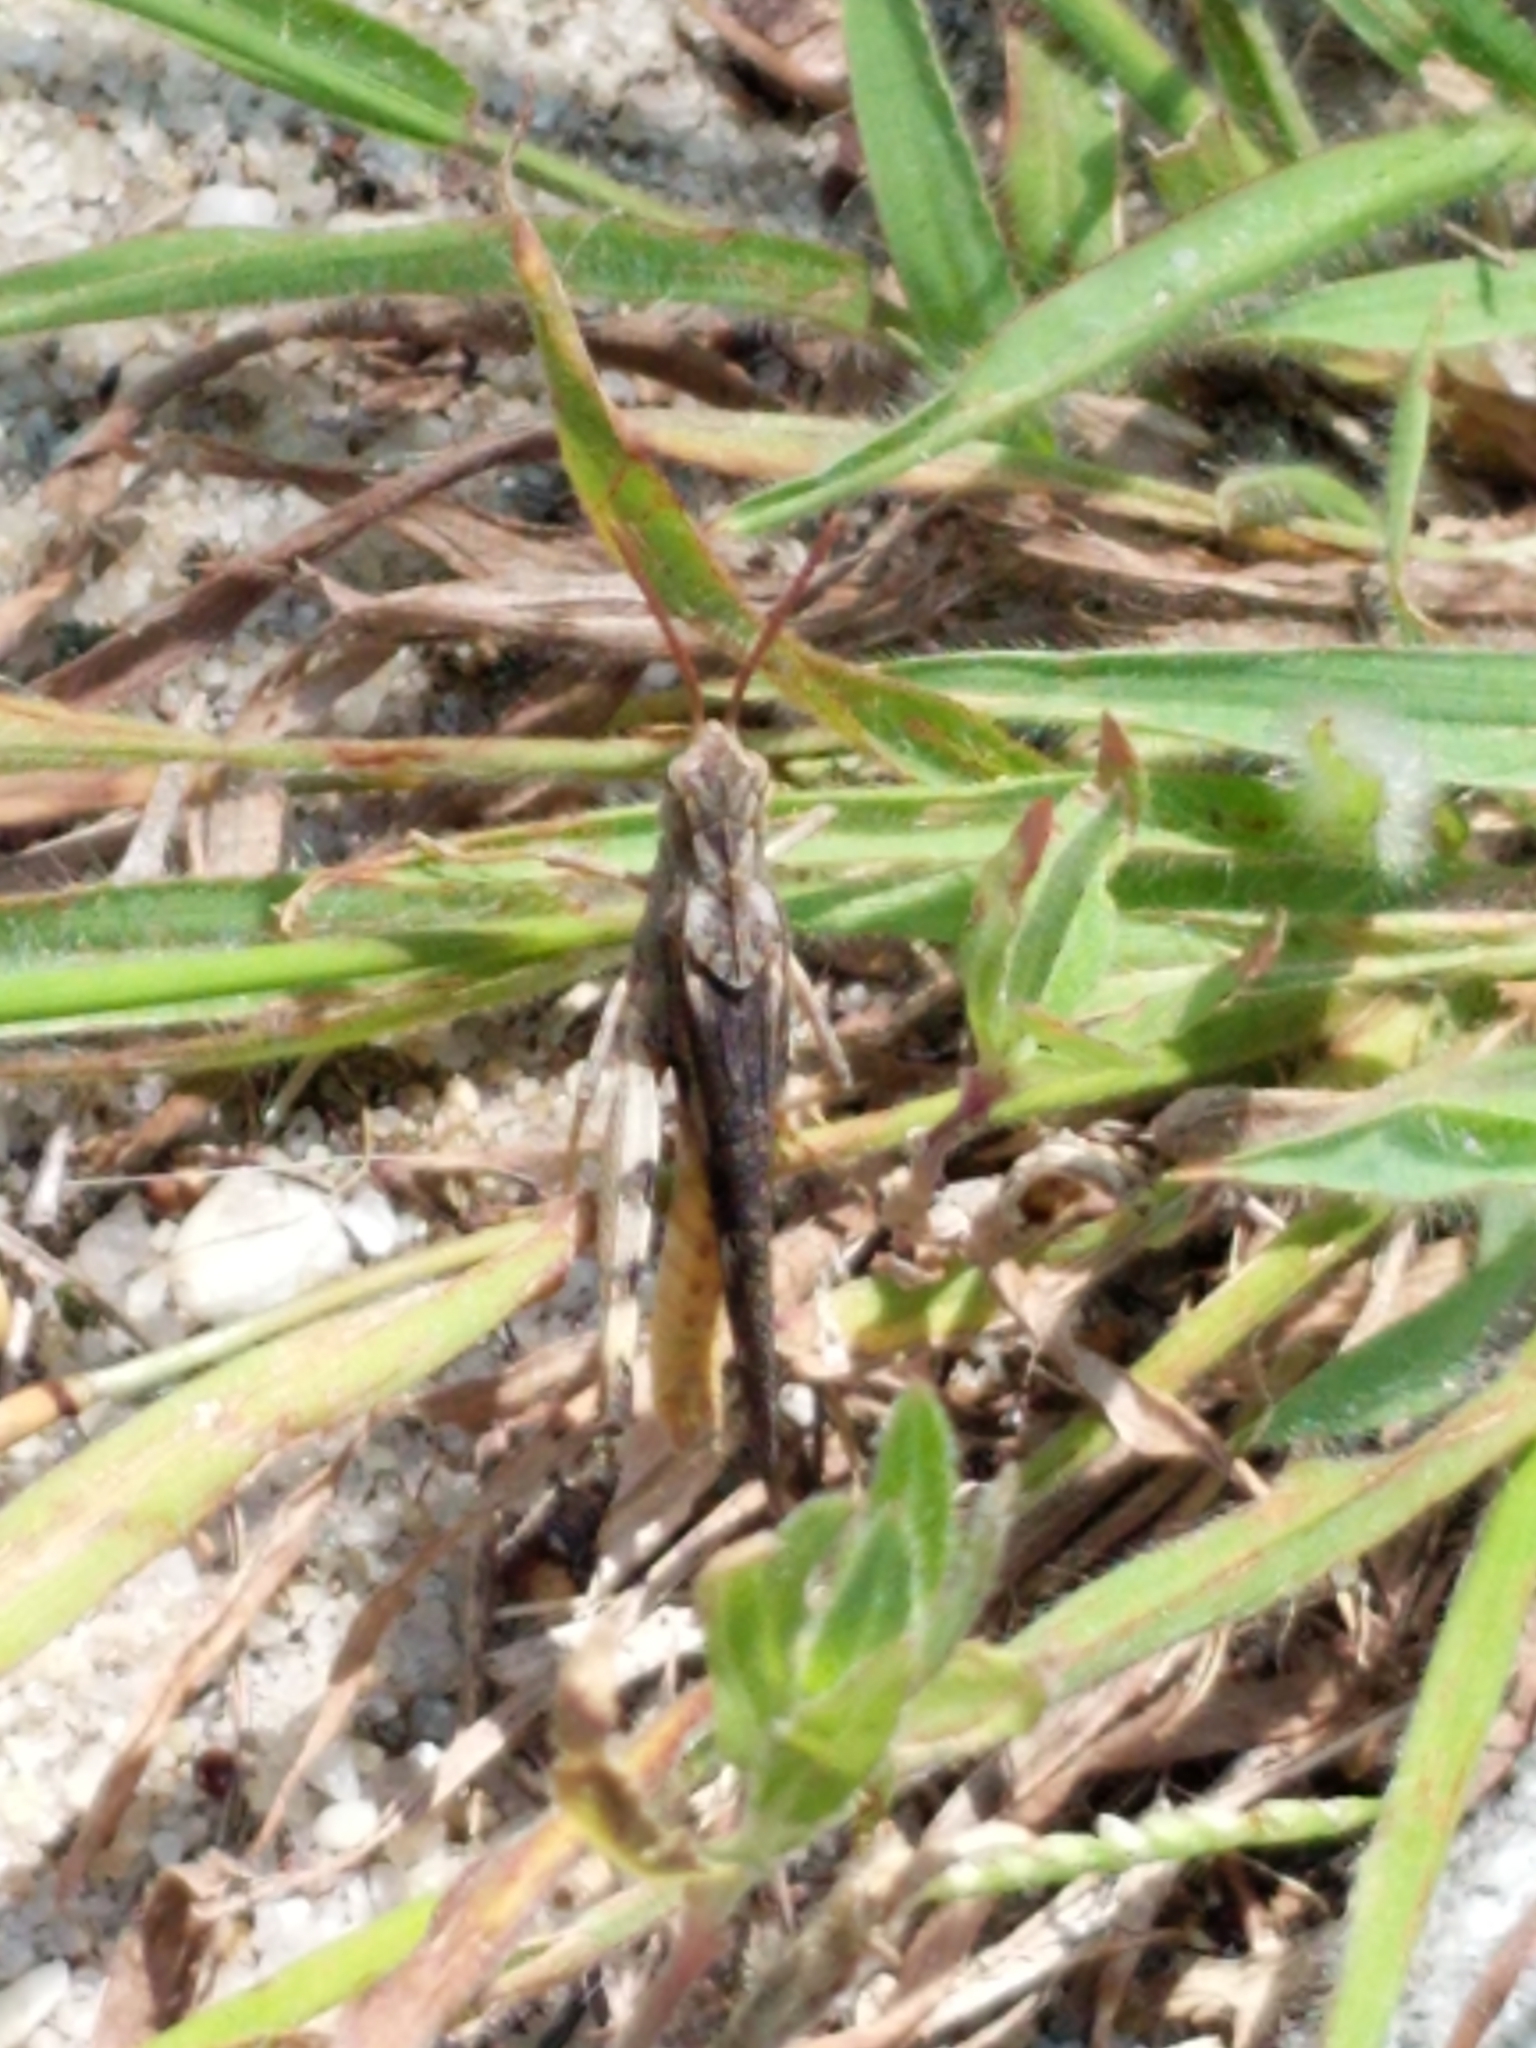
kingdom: Animalia
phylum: Arthropoda
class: Insecta
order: Orthoptera
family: Acrididae
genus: Chortophaga
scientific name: Chortophaga viridifasciata
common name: Green-striped grasshopper
